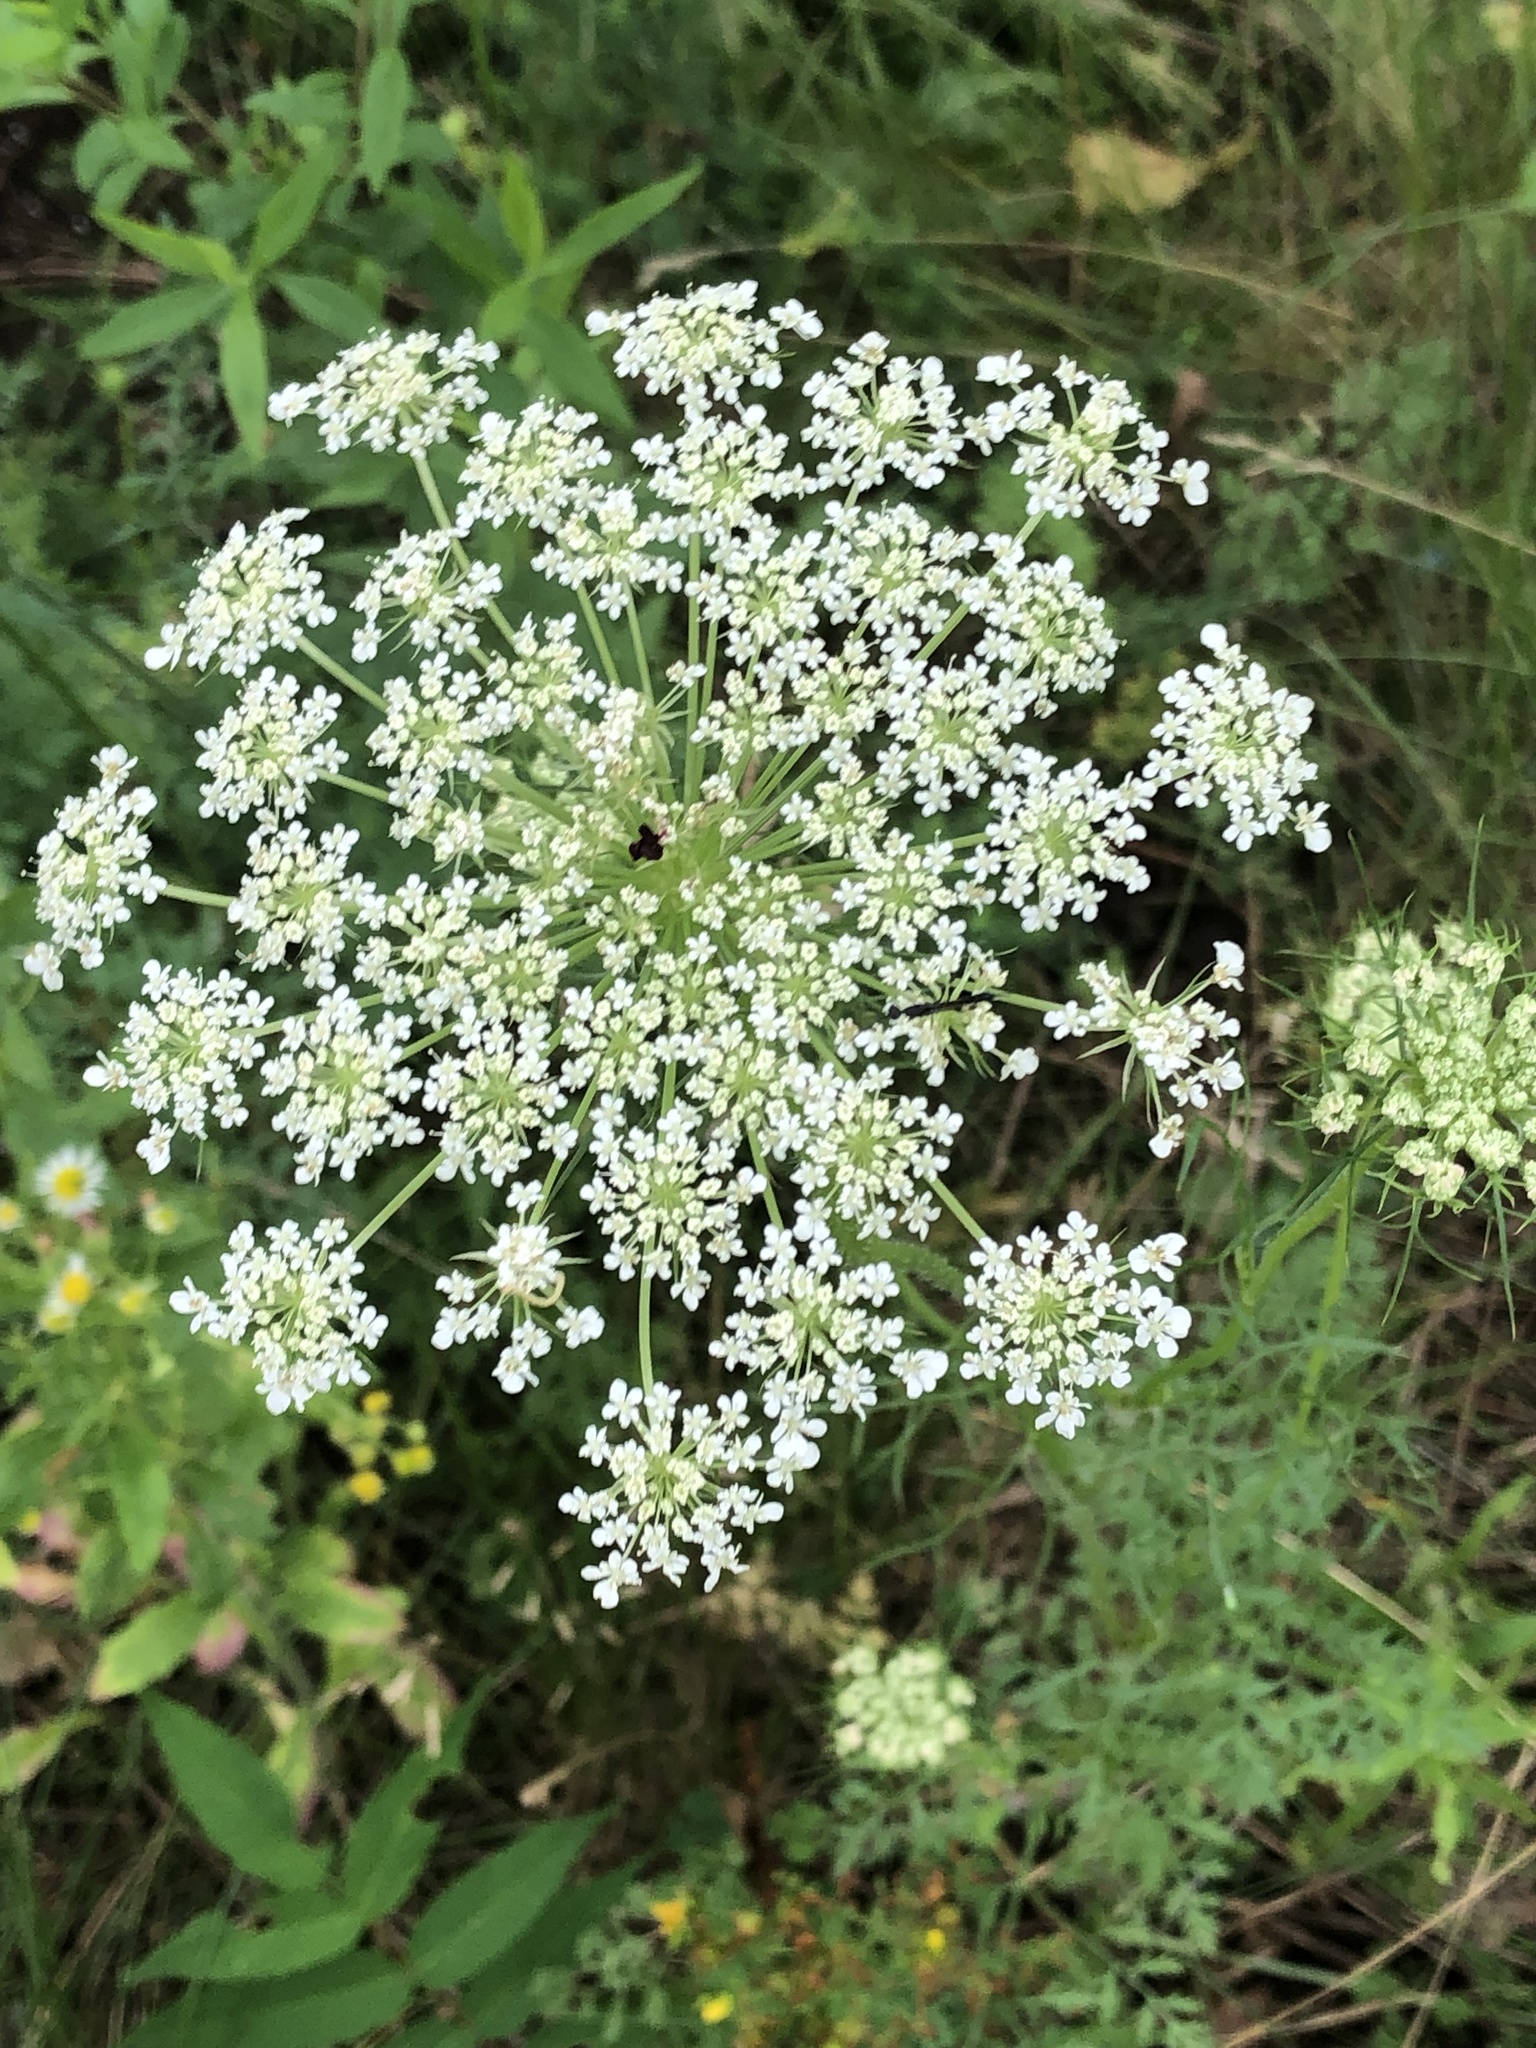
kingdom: Plantae
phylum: Tracheophyta
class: Magnoliopsida
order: Apiales
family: Apiaceae
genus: Daucus
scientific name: Daucus carota
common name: Wild carrot
